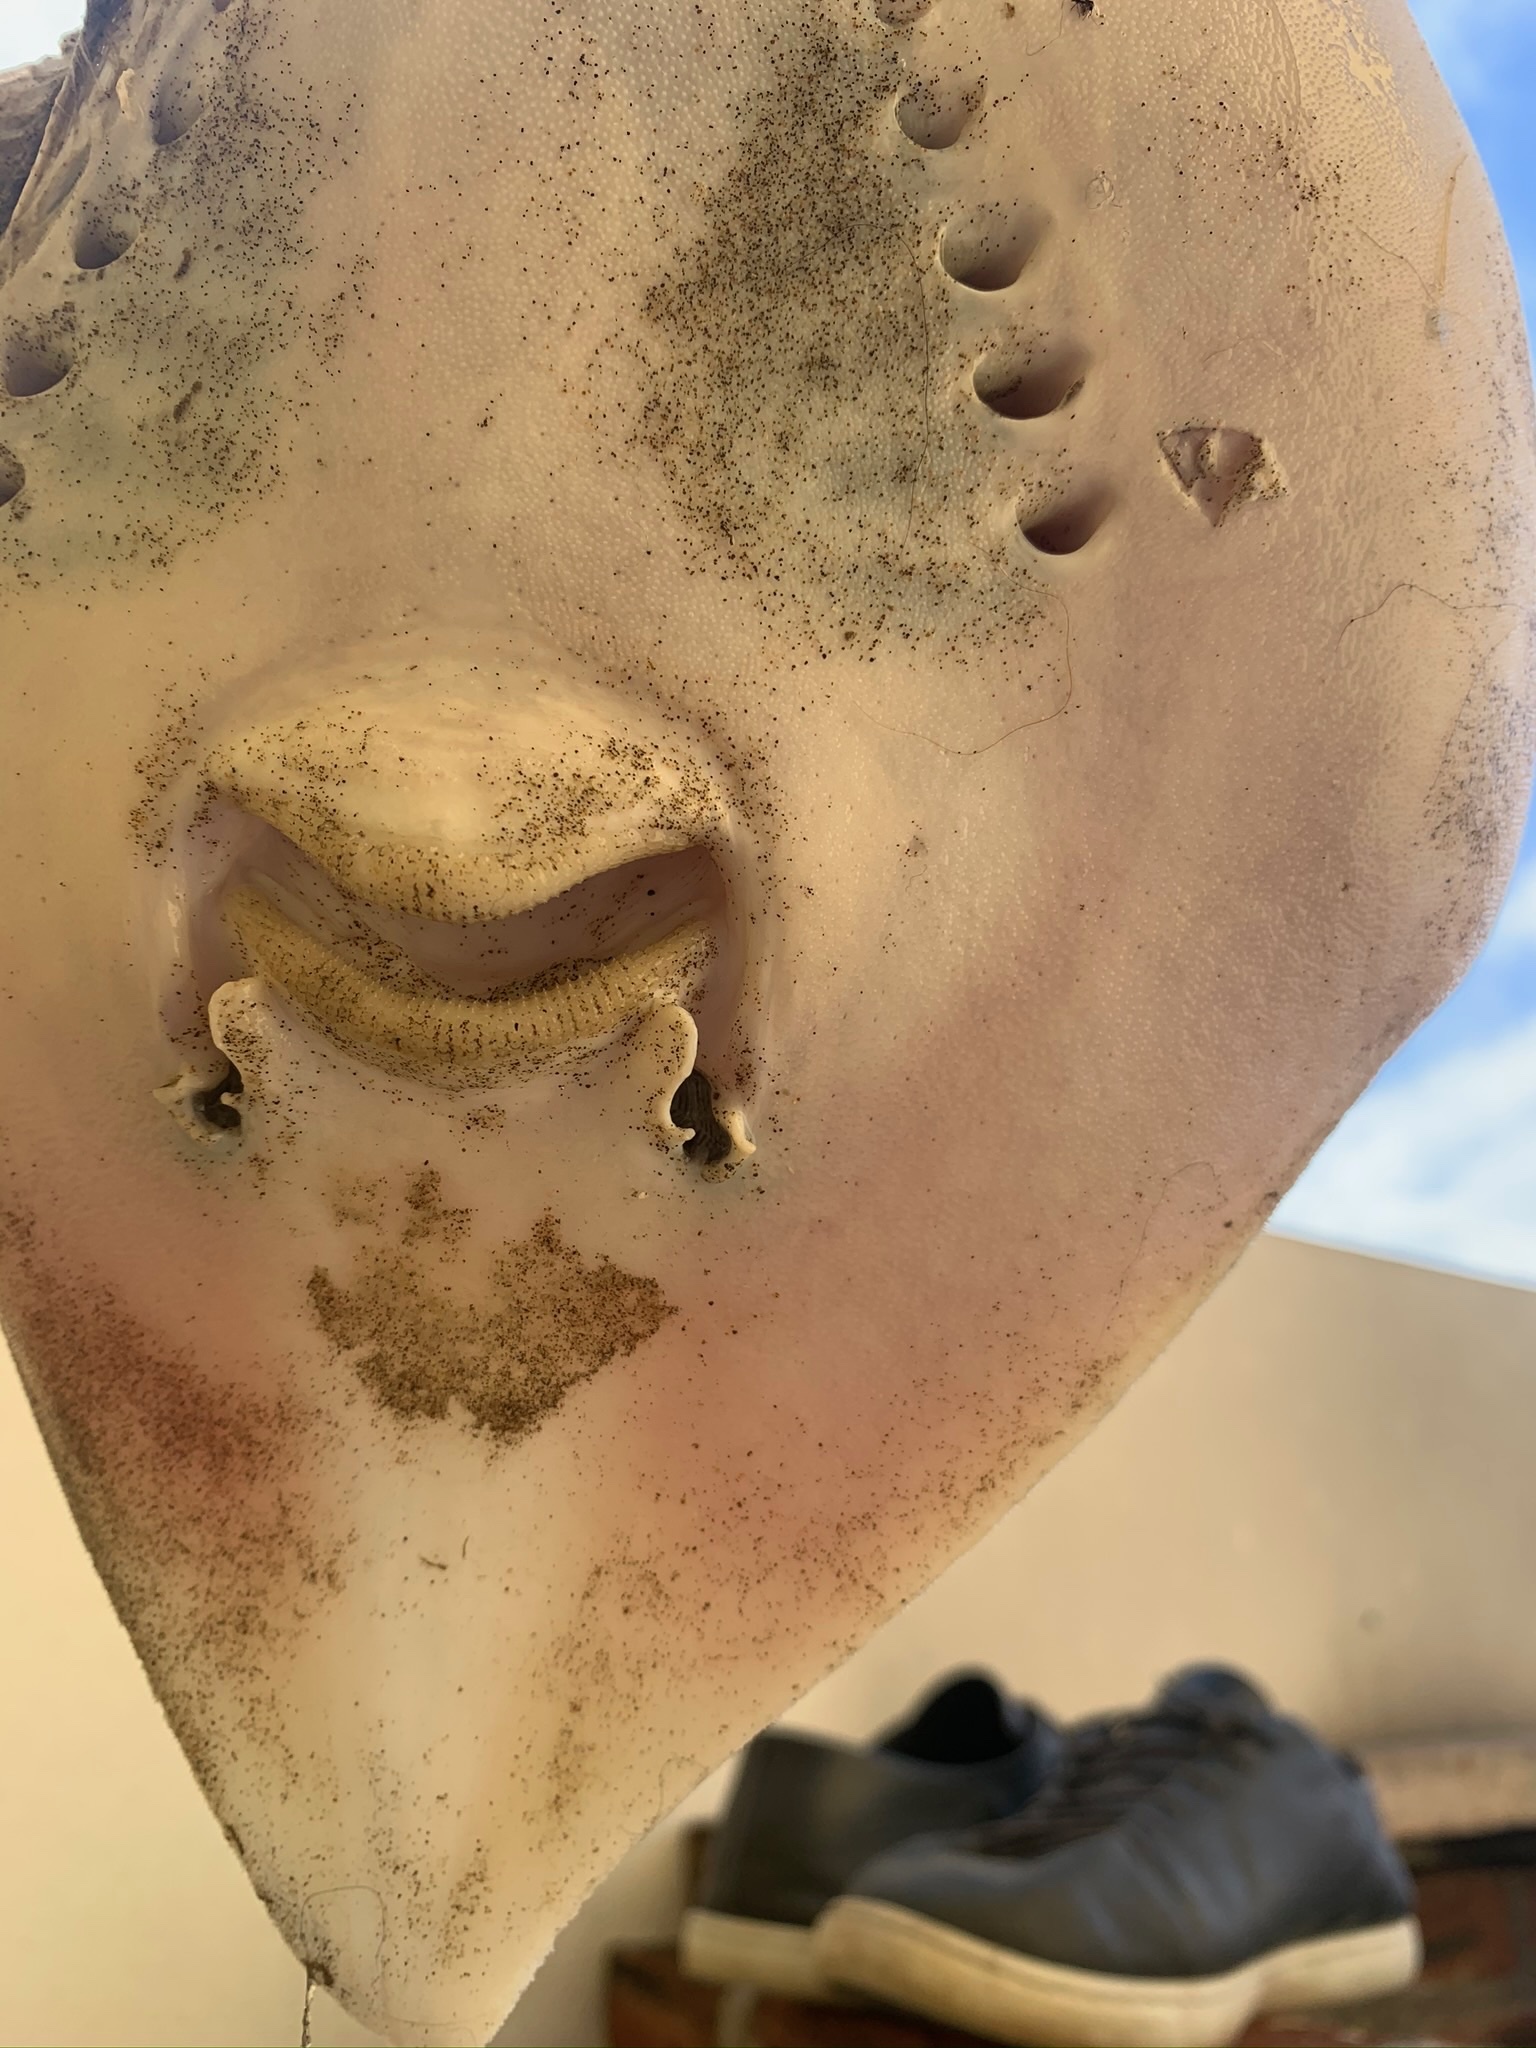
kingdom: Animalia
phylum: Chordata
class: Elasmobranchii
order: Rajiformes
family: Arhynchobatidae
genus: Sympterygia
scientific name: Sympterygia acuta
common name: Bignose fanskate
